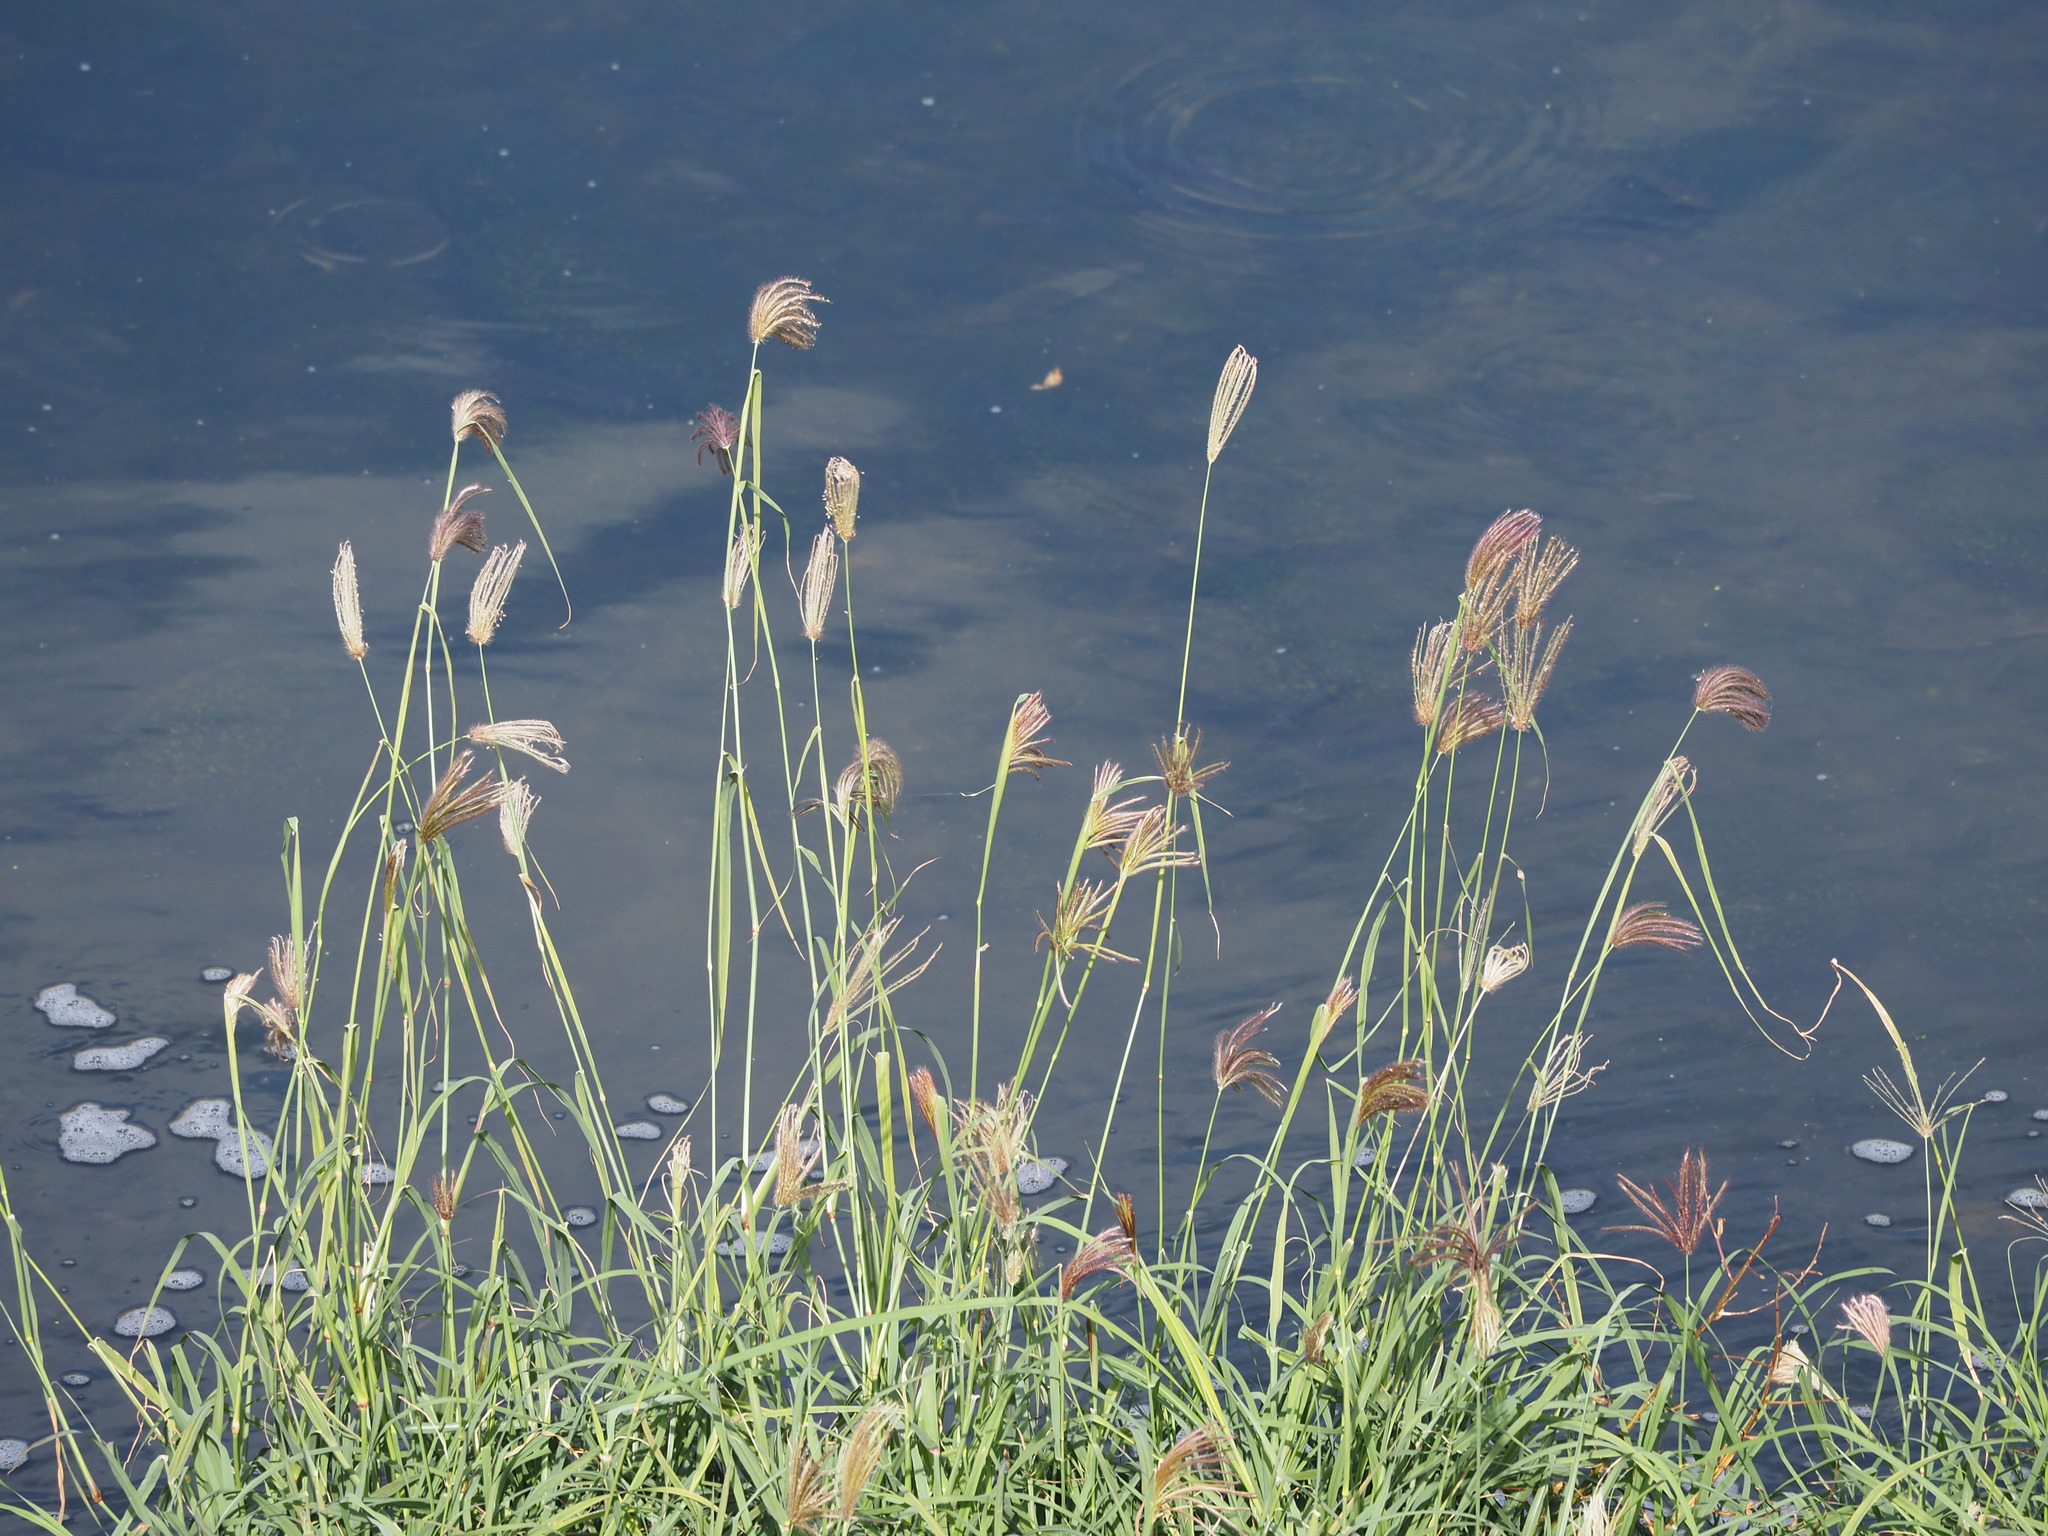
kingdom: Plantae
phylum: Tracheophyta
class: Liliopsida
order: Poales
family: Poaceae
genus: Chloris
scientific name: Chloris barbata
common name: Swollen fingergrass
